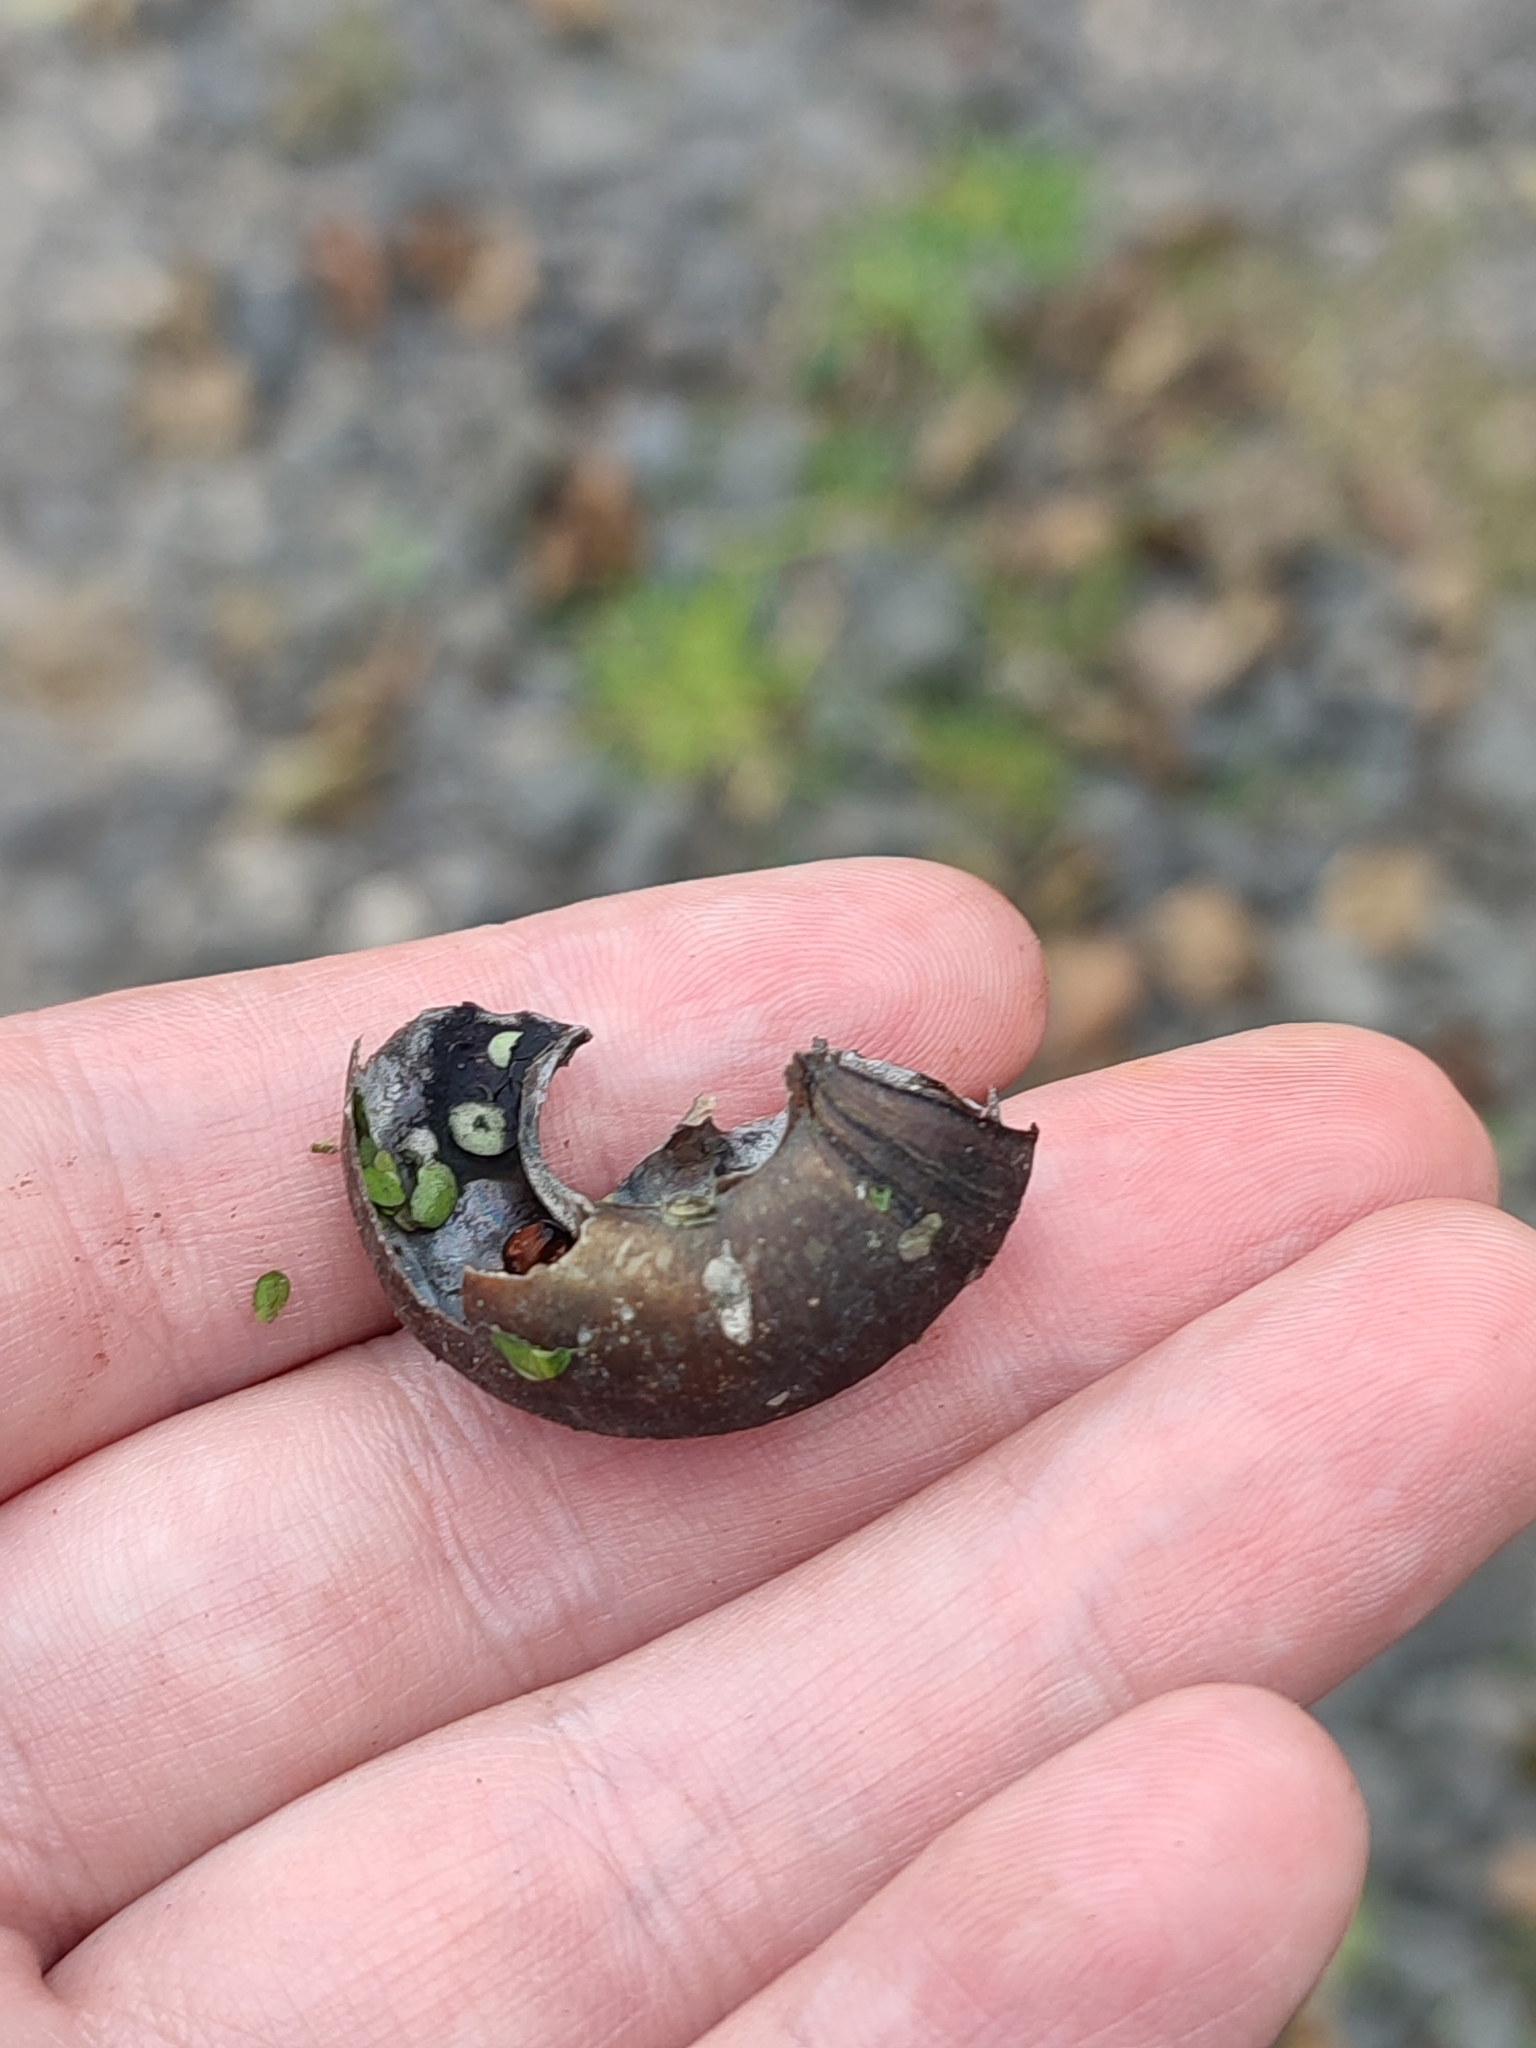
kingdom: Animalia
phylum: Mollusca
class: Gastropoda
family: Planorbidae
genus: Planorbarius
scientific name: Planorbarius corneus
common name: Great ramshorn
